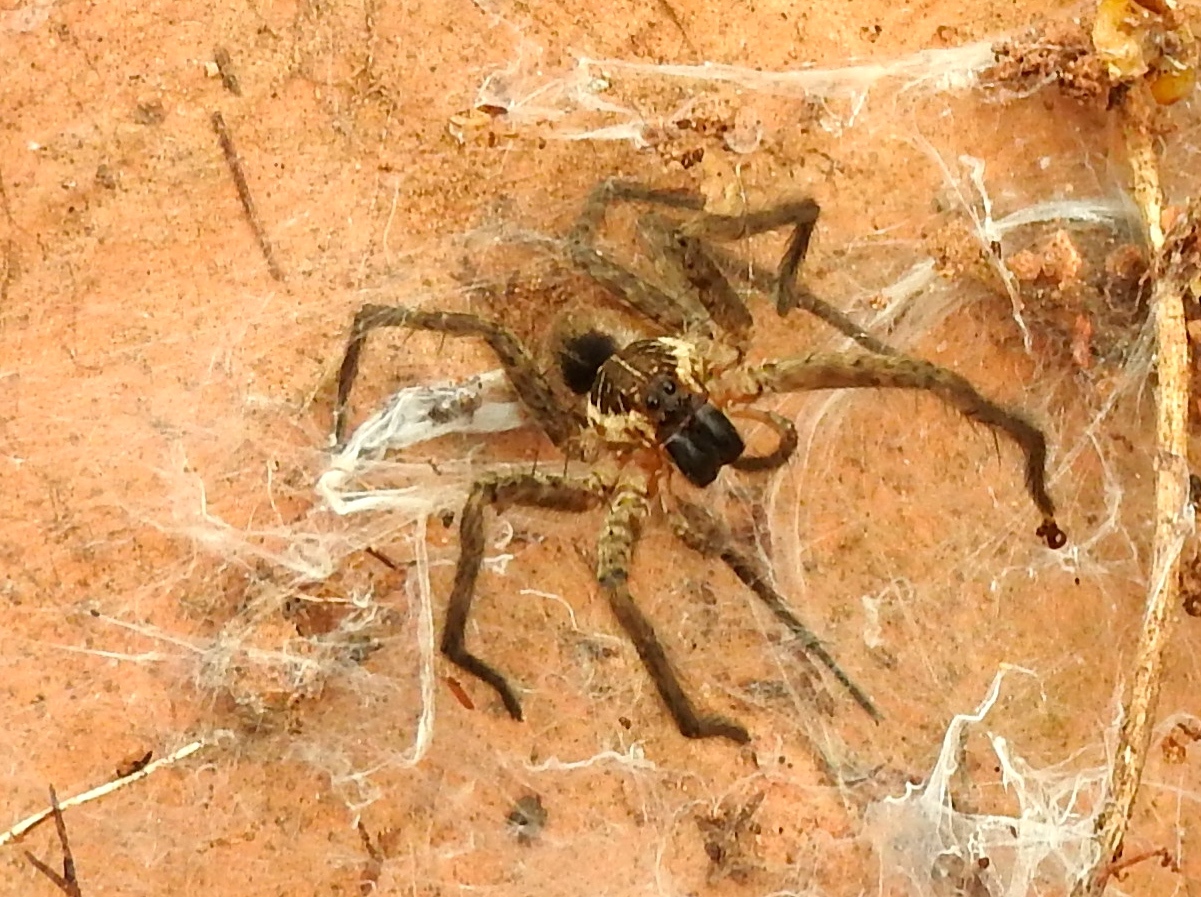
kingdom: Animalia
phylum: Arthropoda
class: Arachnida
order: Araneae
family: Lycosidae
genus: Sosippus
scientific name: Sosippus
